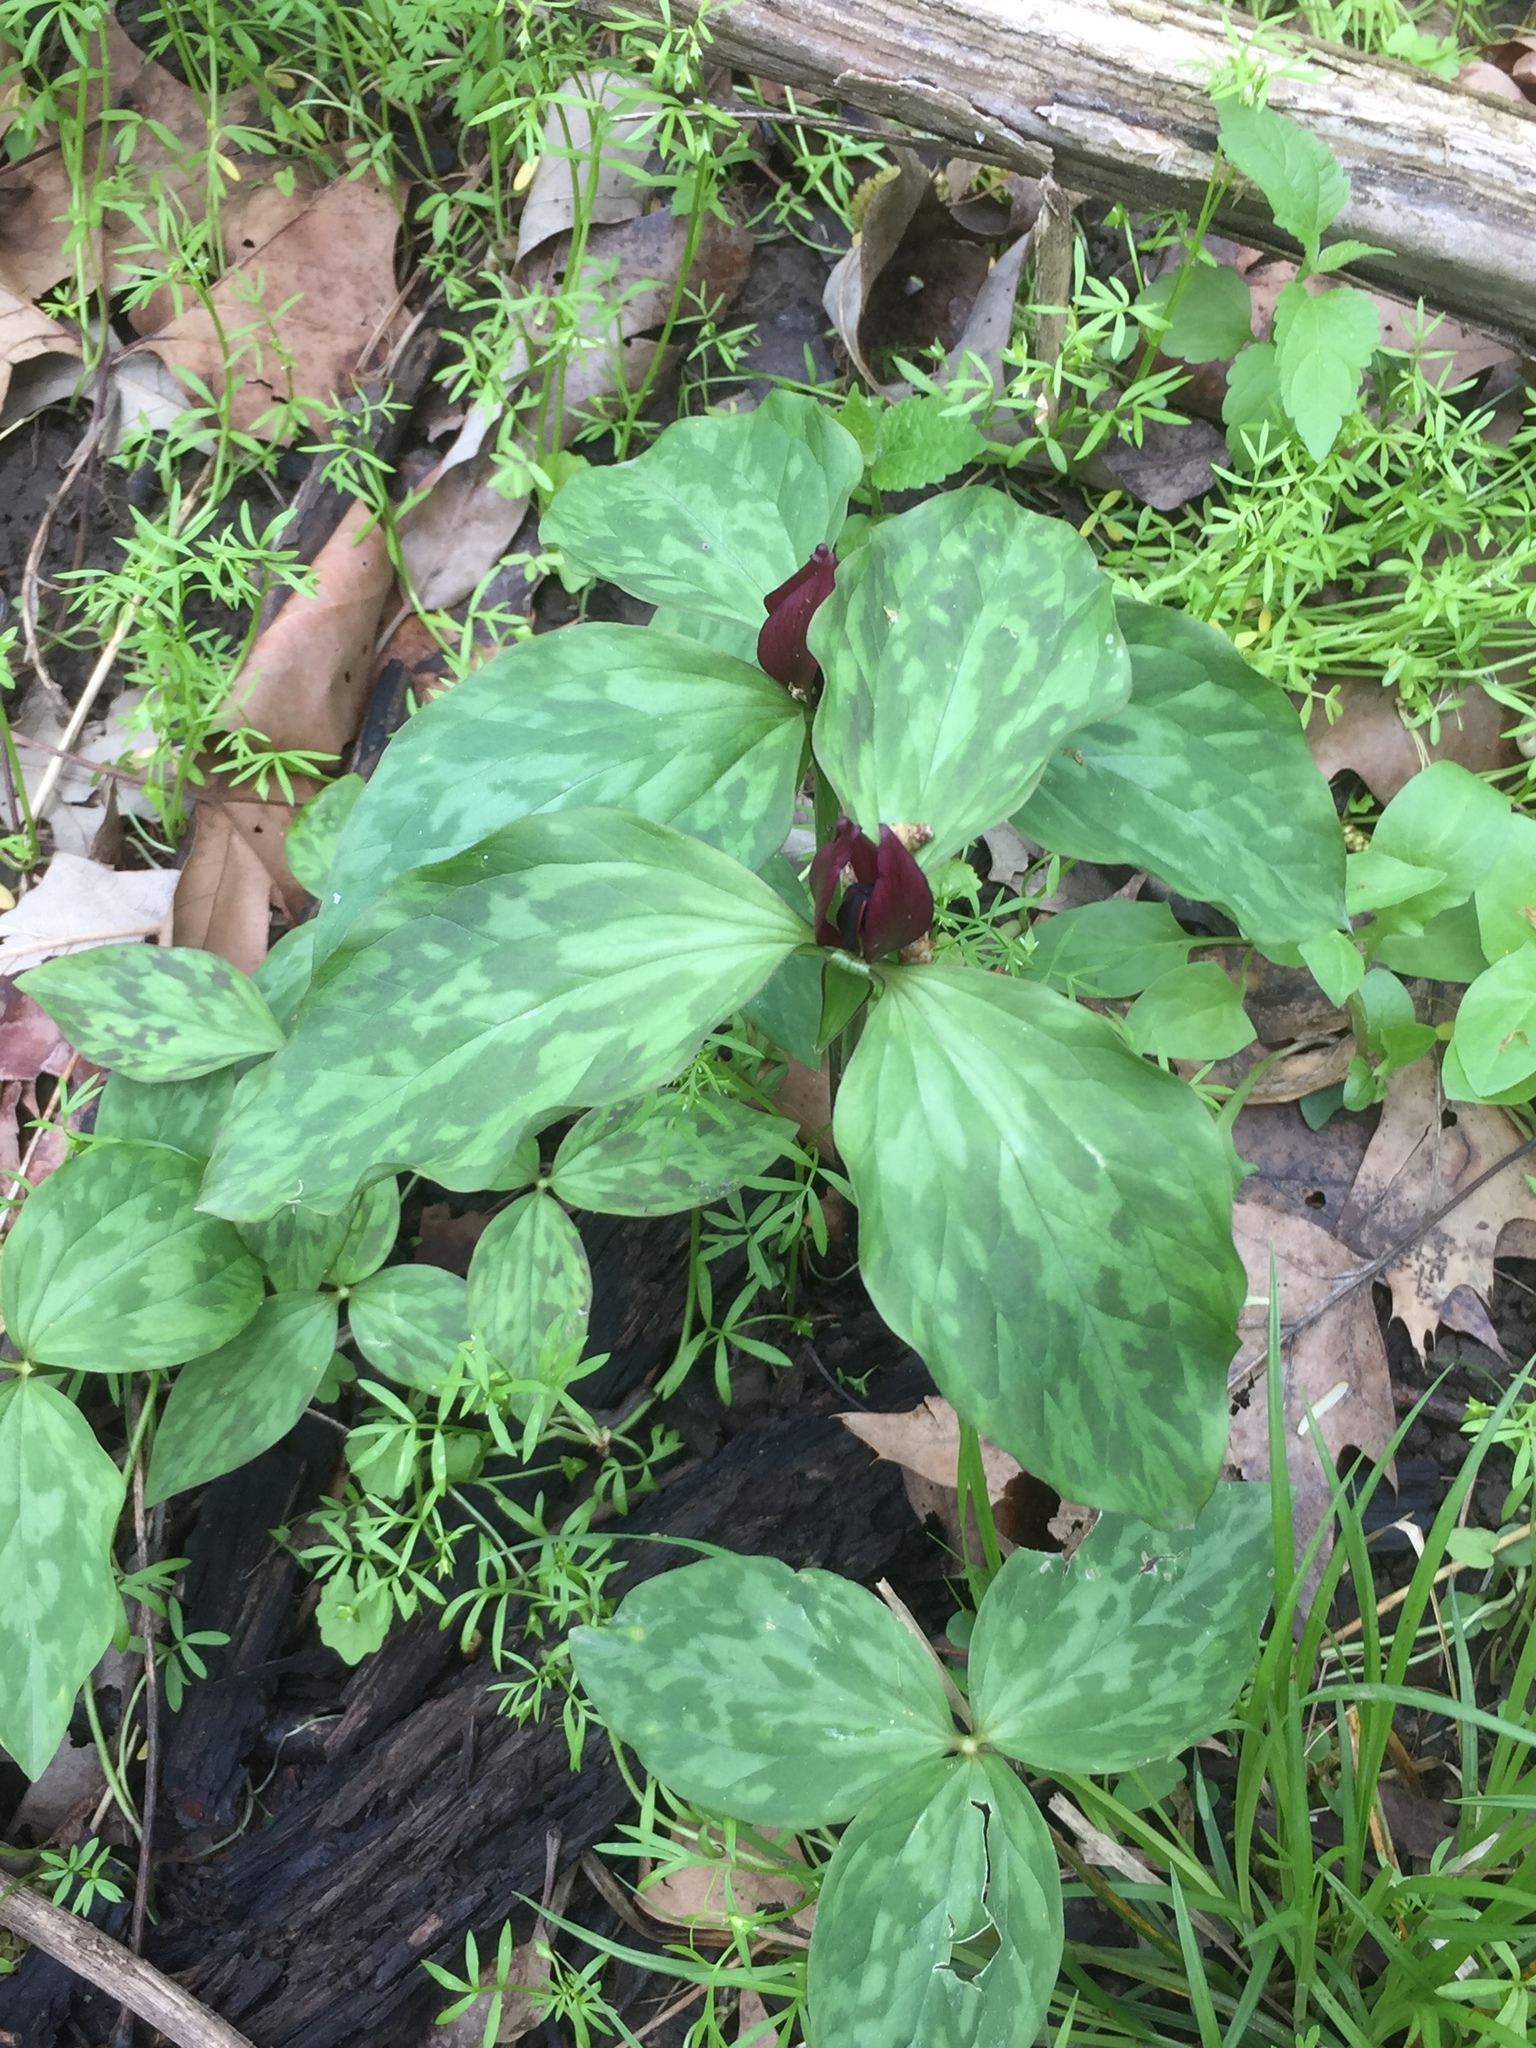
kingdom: Plantae
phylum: Tracheophyta
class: Liliopsida
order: Liliales
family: Melanthiaceae
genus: Trillium
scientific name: Trillium recurvatum
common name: Bloody butcher
